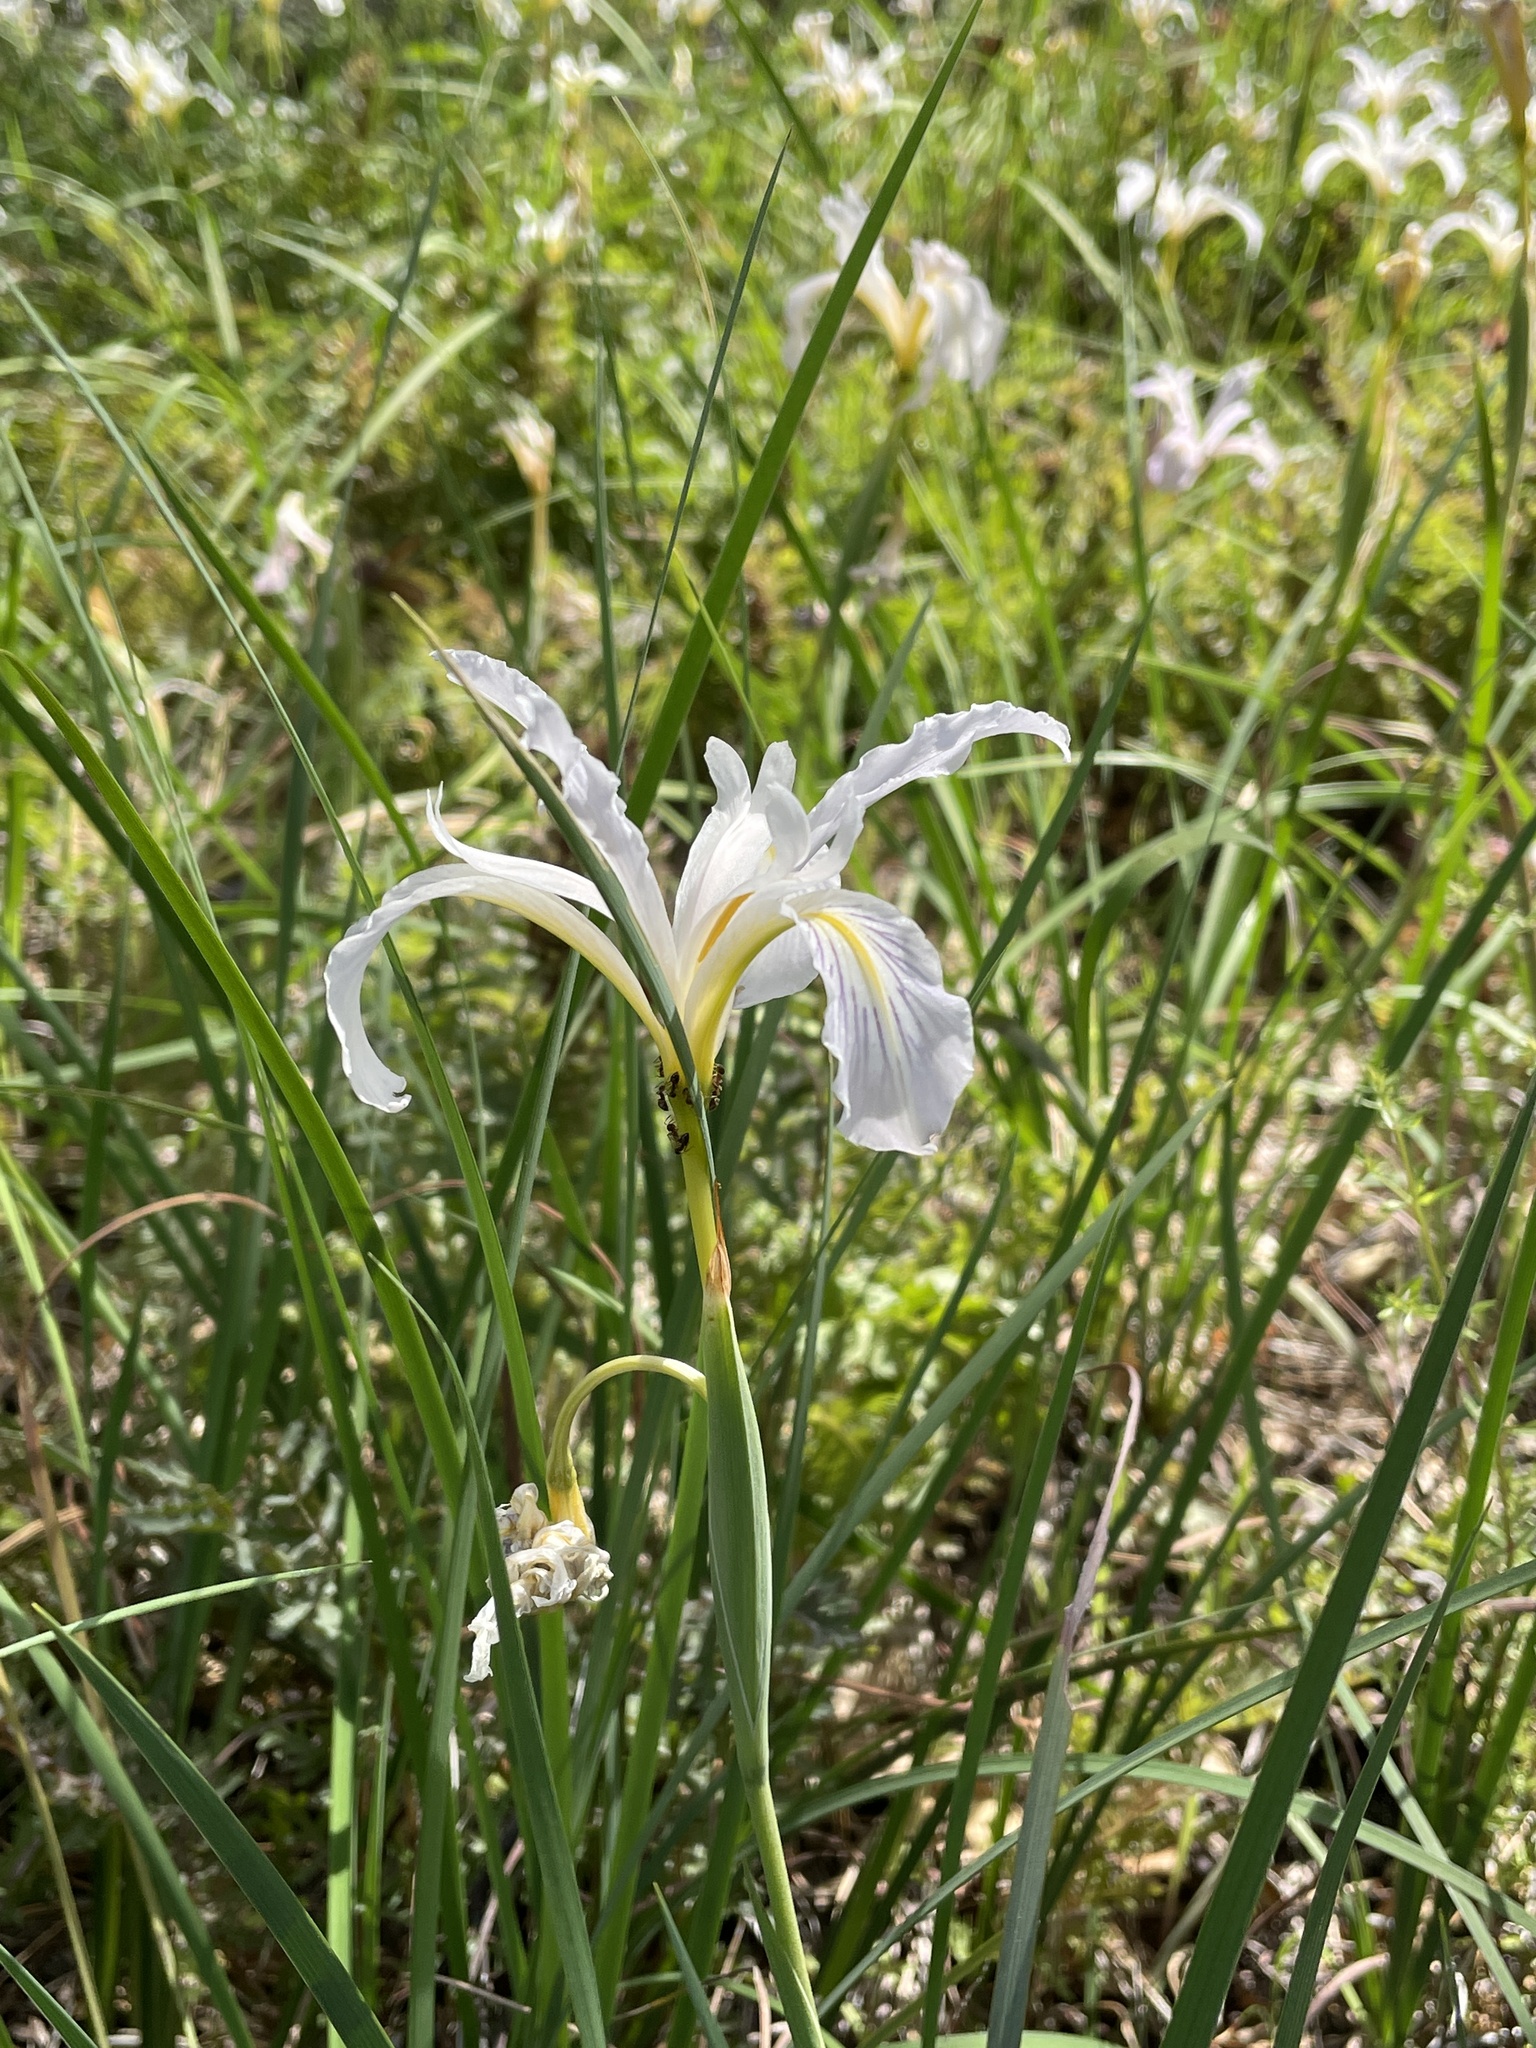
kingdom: Plantae
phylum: Tracheophyta
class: Liliopsida
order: Asparagales
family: Iridaceae
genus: Iris
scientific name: Iris macrosiphon
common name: Ground iris
